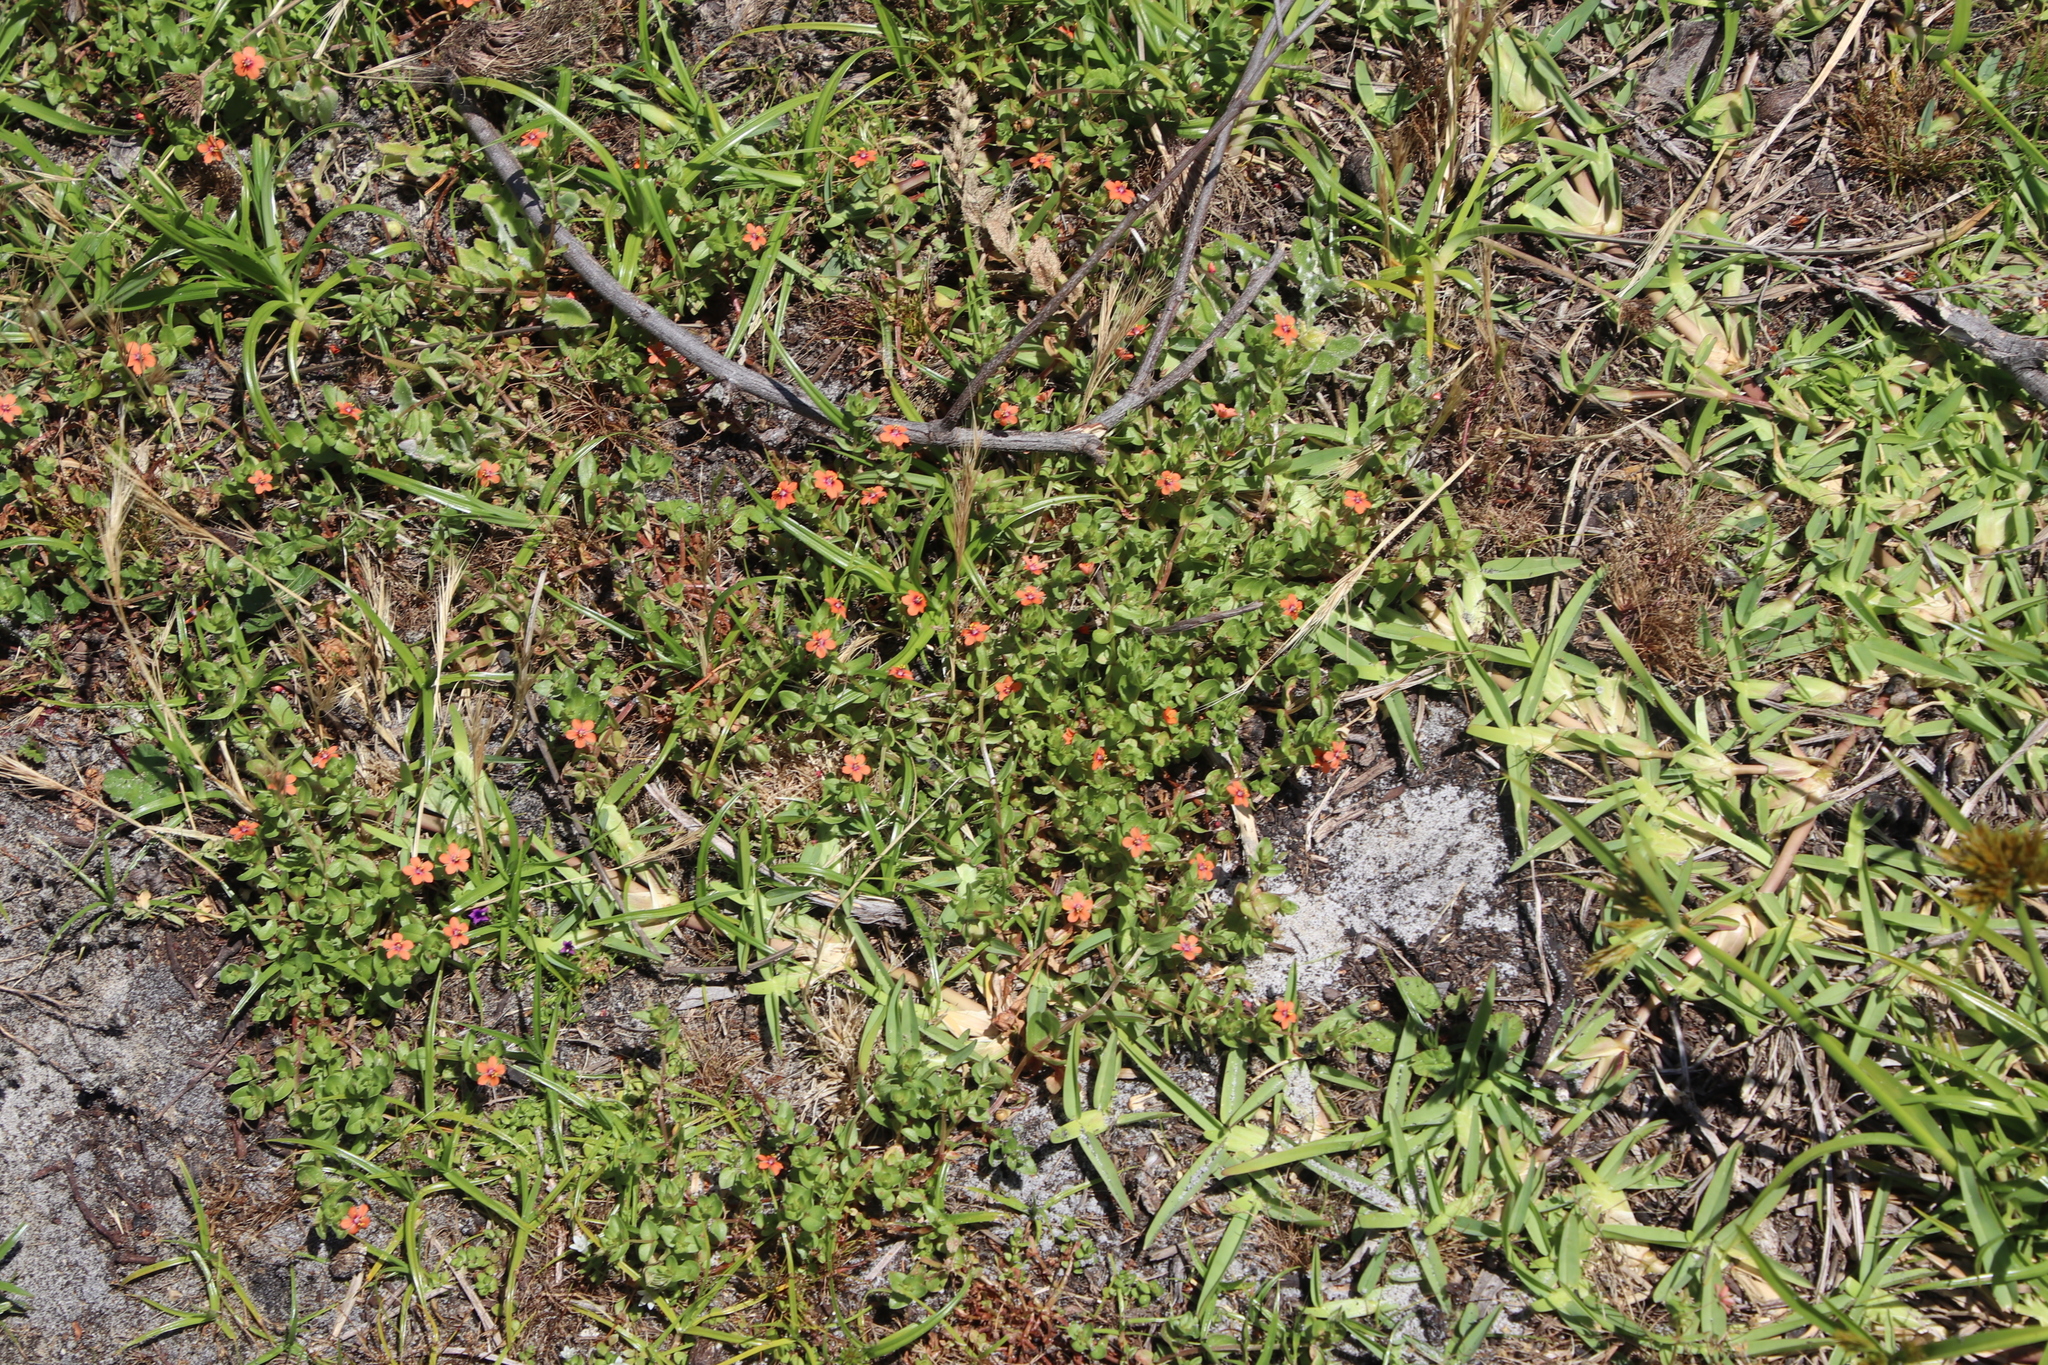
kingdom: Plantae
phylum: Tracheophyta
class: Magnoliopsida
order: Ericales
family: Primulaceae
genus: Lysimachia
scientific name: Lysimachia arvensis
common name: Scarlet pimpernel
